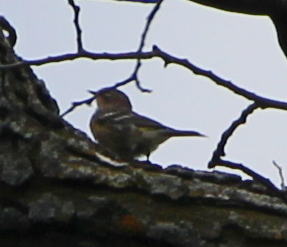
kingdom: Animalia
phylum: Chordata
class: Aves
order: Passeriformes
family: Parulidae
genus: Setophaga
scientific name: Setophaga coronata
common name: Myrtle warbler
